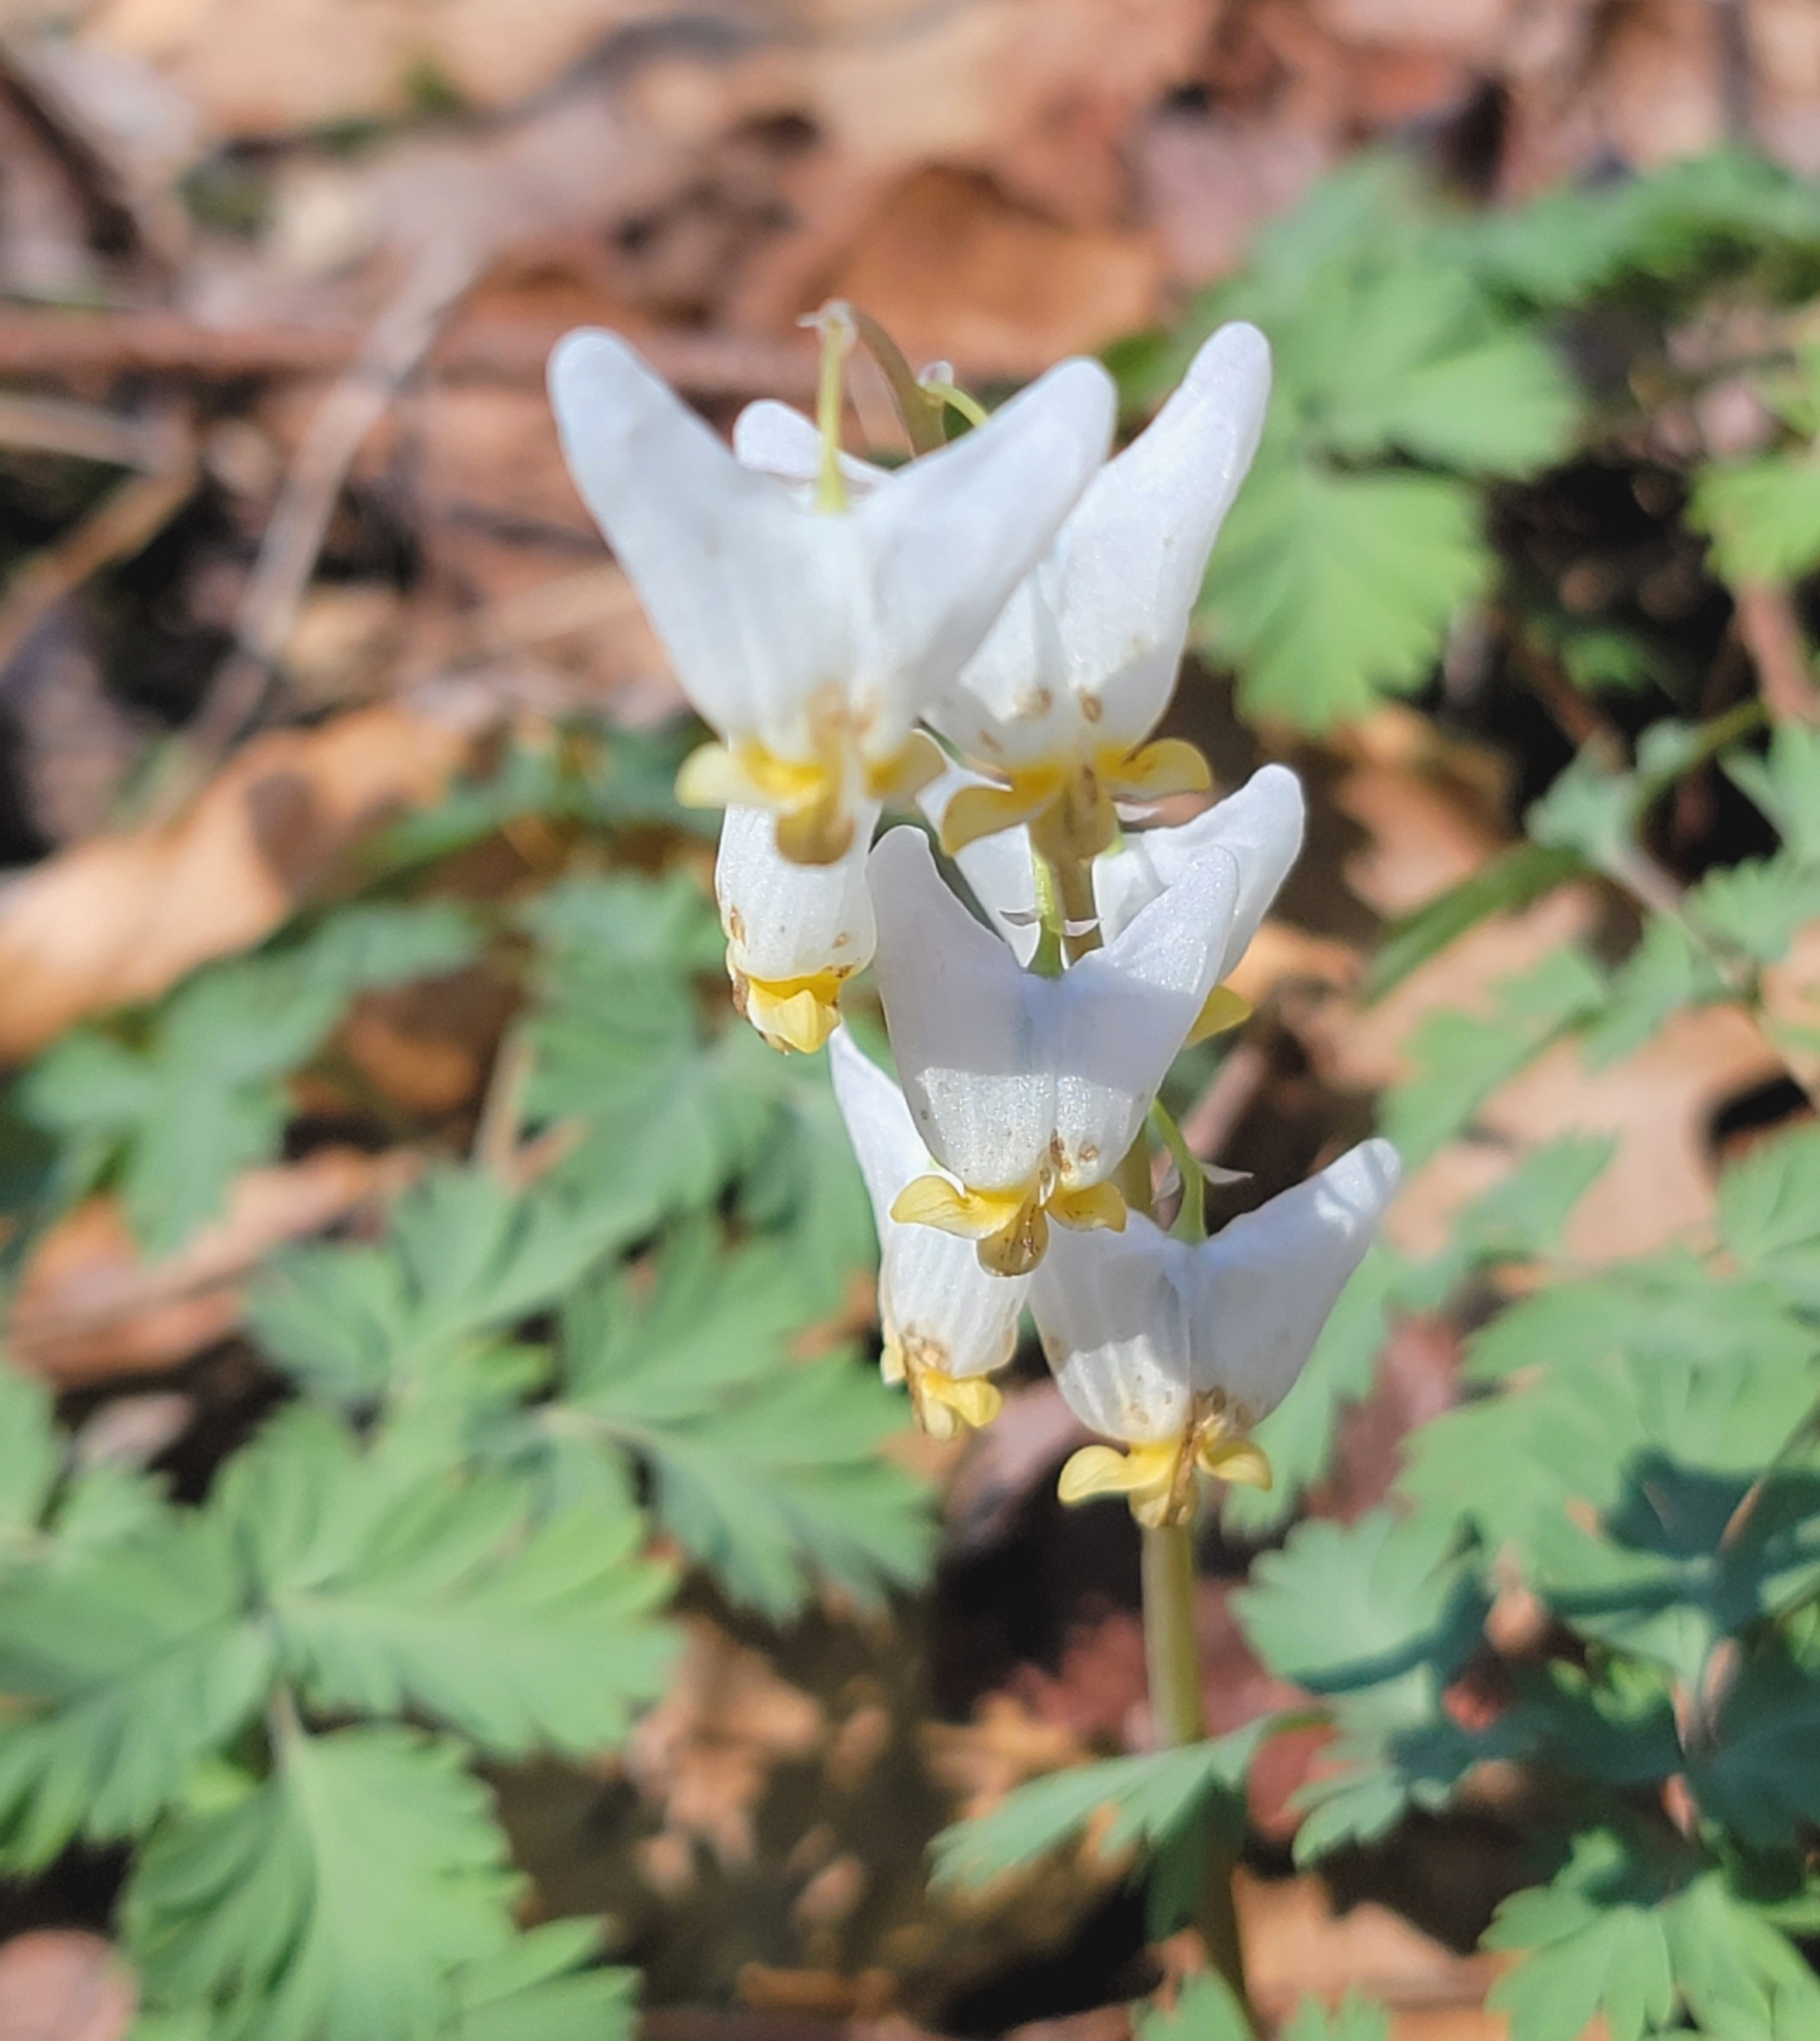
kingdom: Plantae
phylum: Tracheophyta
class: Magnoliopsida
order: Ranunculales
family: Papaveraceae
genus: Dicentra
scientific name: Dicentra cucullaria
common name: Dutchman's breeches
